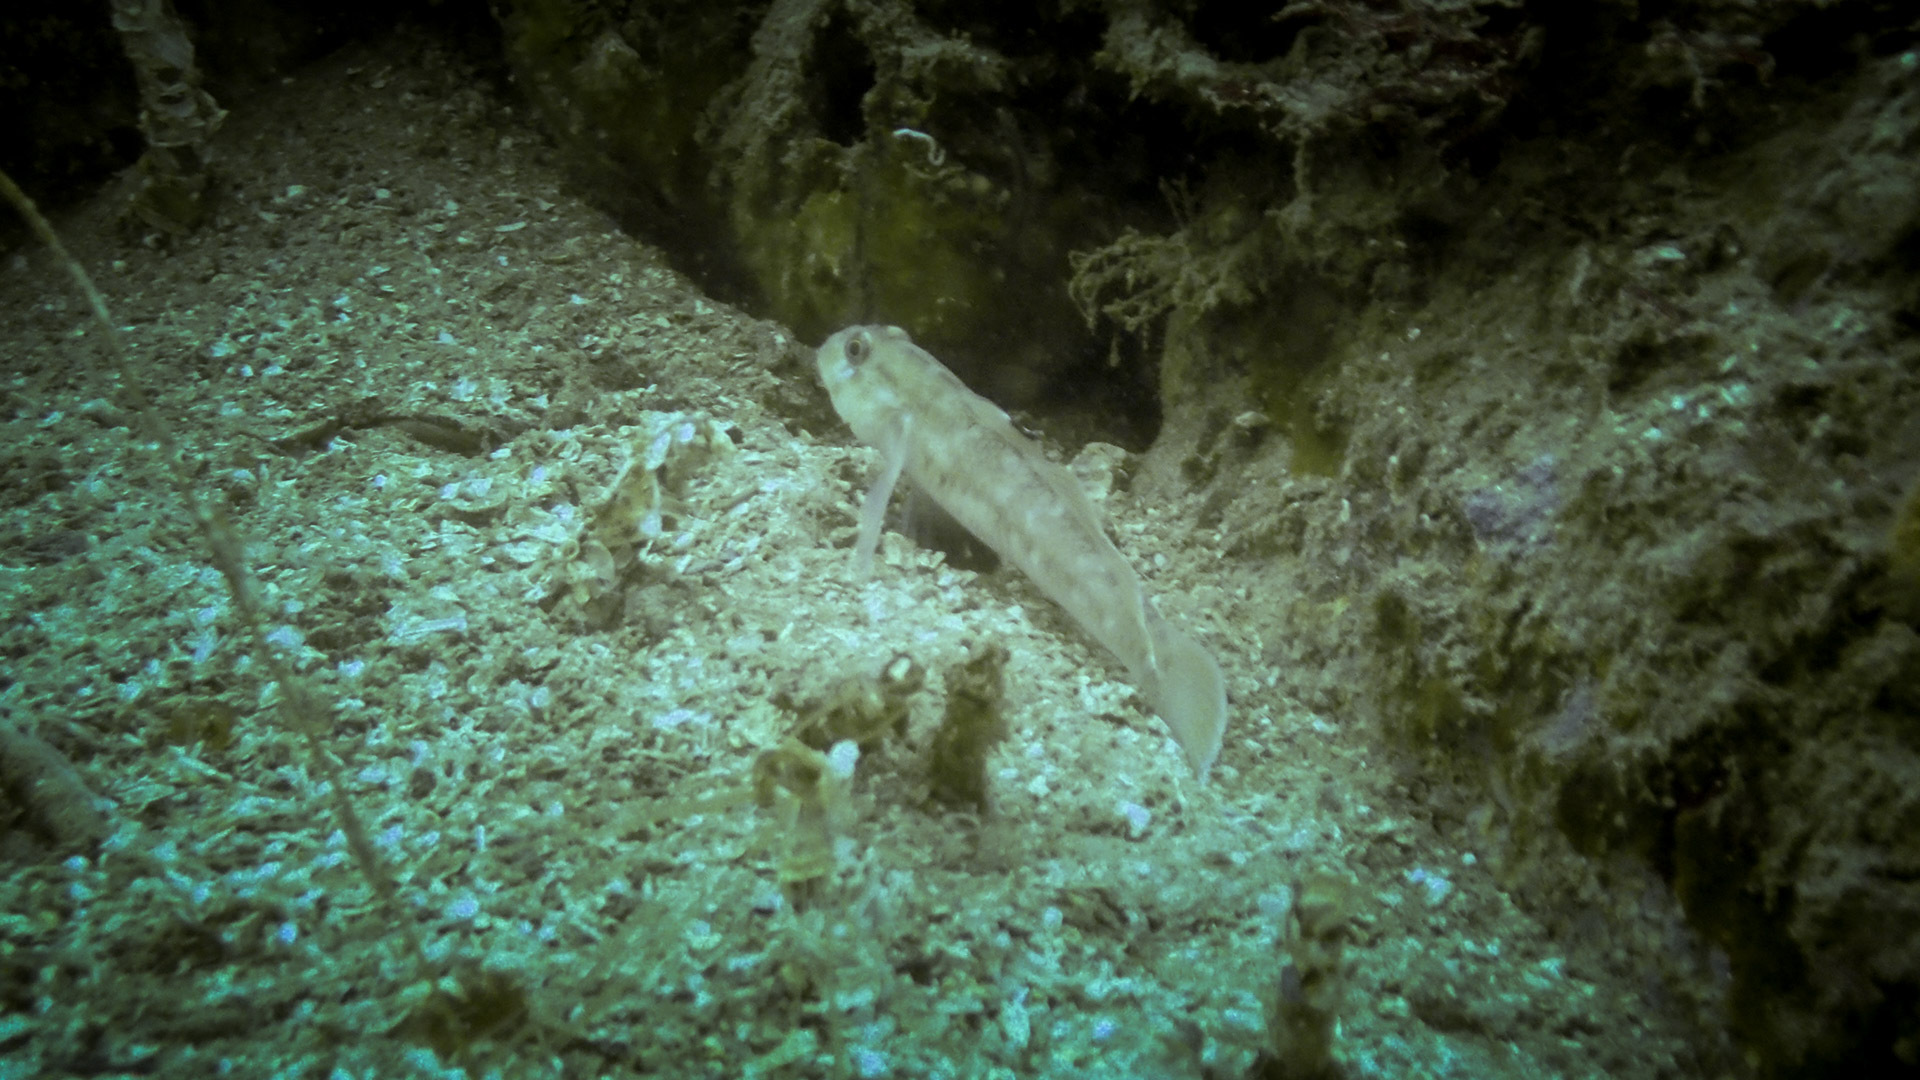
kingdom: Animalia
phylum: Chordata
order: Perciformes
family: Gobiidae
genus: Rhinogobiops
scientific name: Rhinogobiops nicholsii
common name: Blackeye goby
